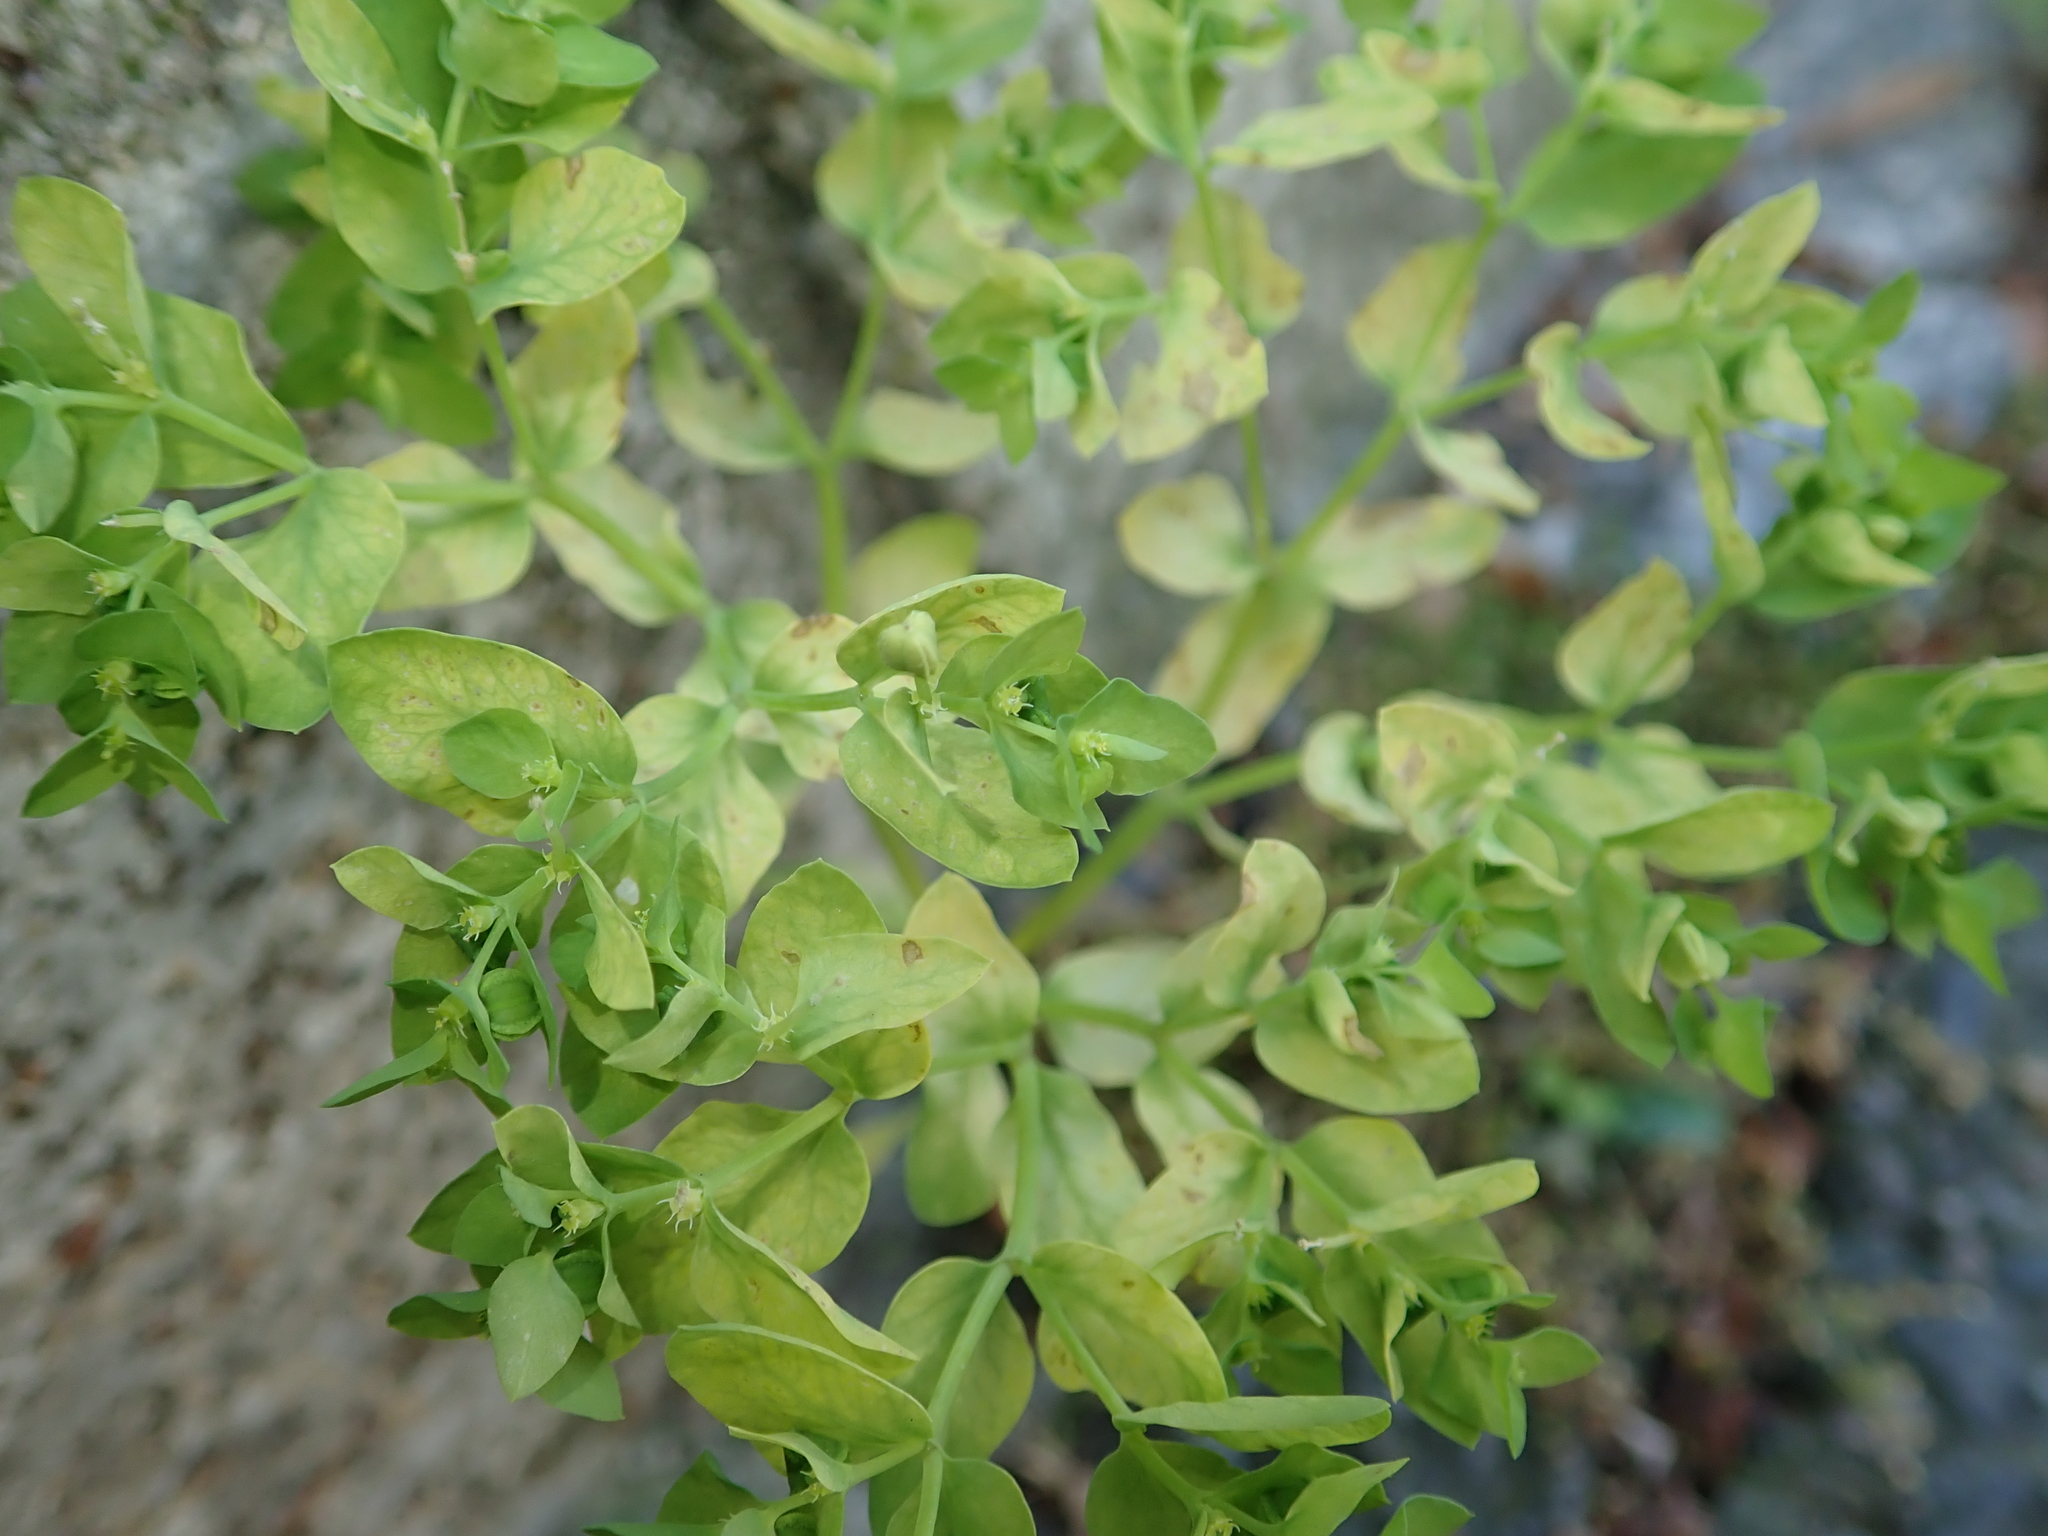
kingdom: Plantae
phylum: Tracheophyta
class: Magnoliopsida
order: Malpighiales
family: Euphorbiaceae
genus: Euphorbia
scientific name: Euphorbia peplus
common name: Petty spurge
